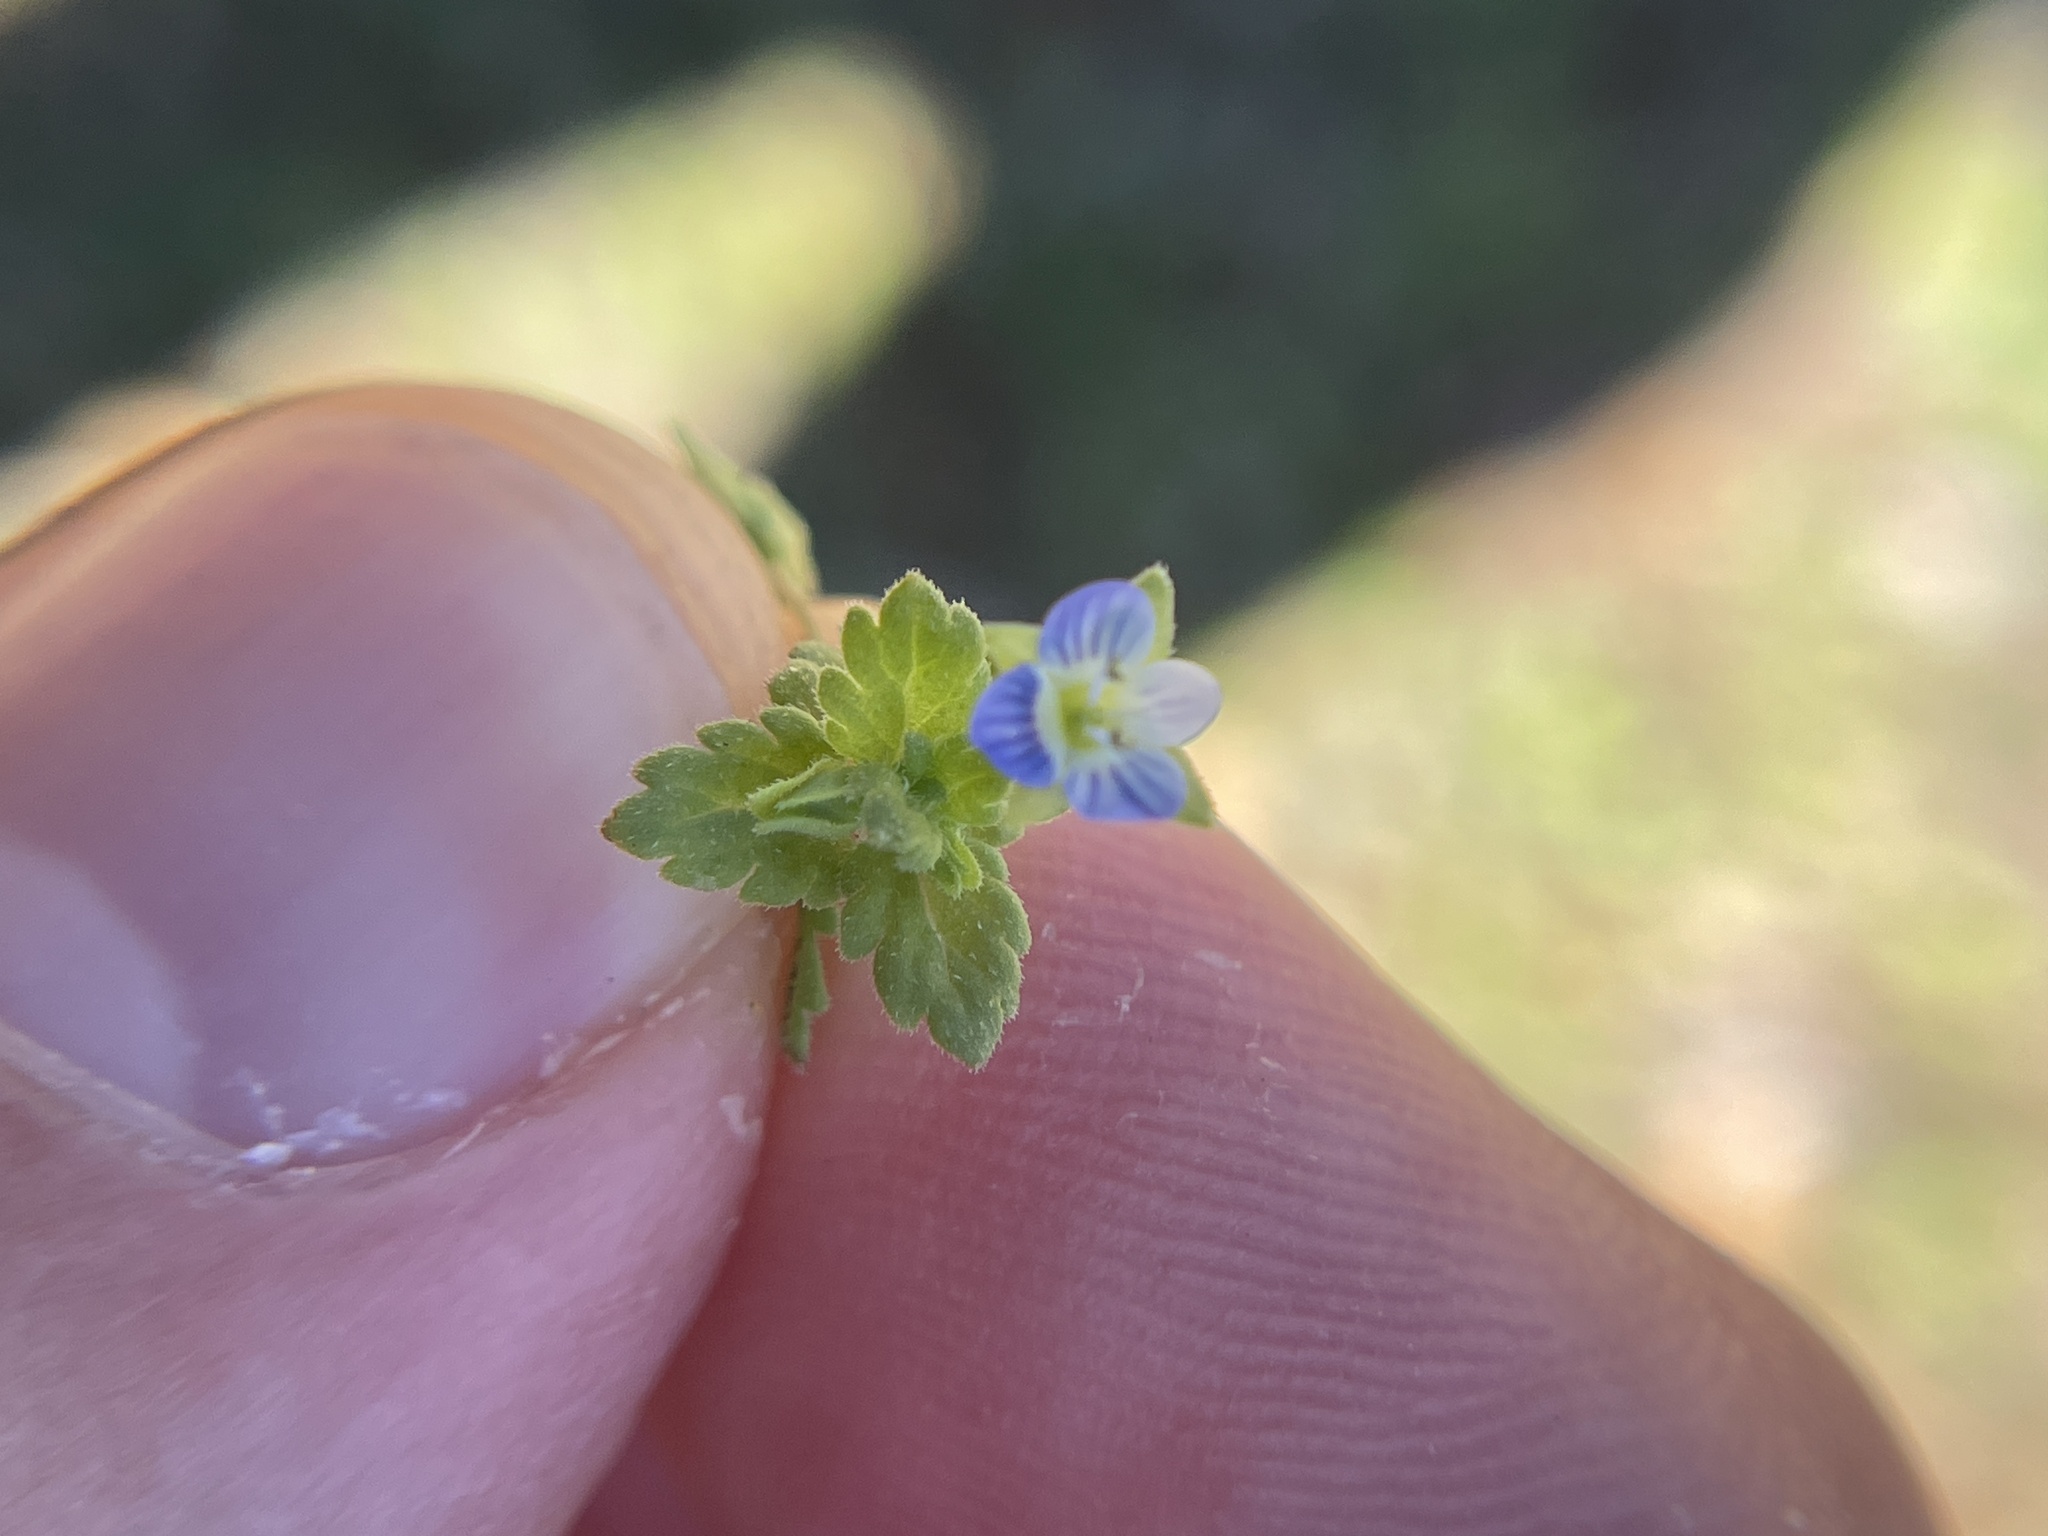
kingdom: Plantae
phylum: Tracheophyta
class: Magnoliopsida
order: Lamiales
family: Plantaginaceae
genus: Veronica
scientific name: Veronica polita
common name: Grey field-speedwell
